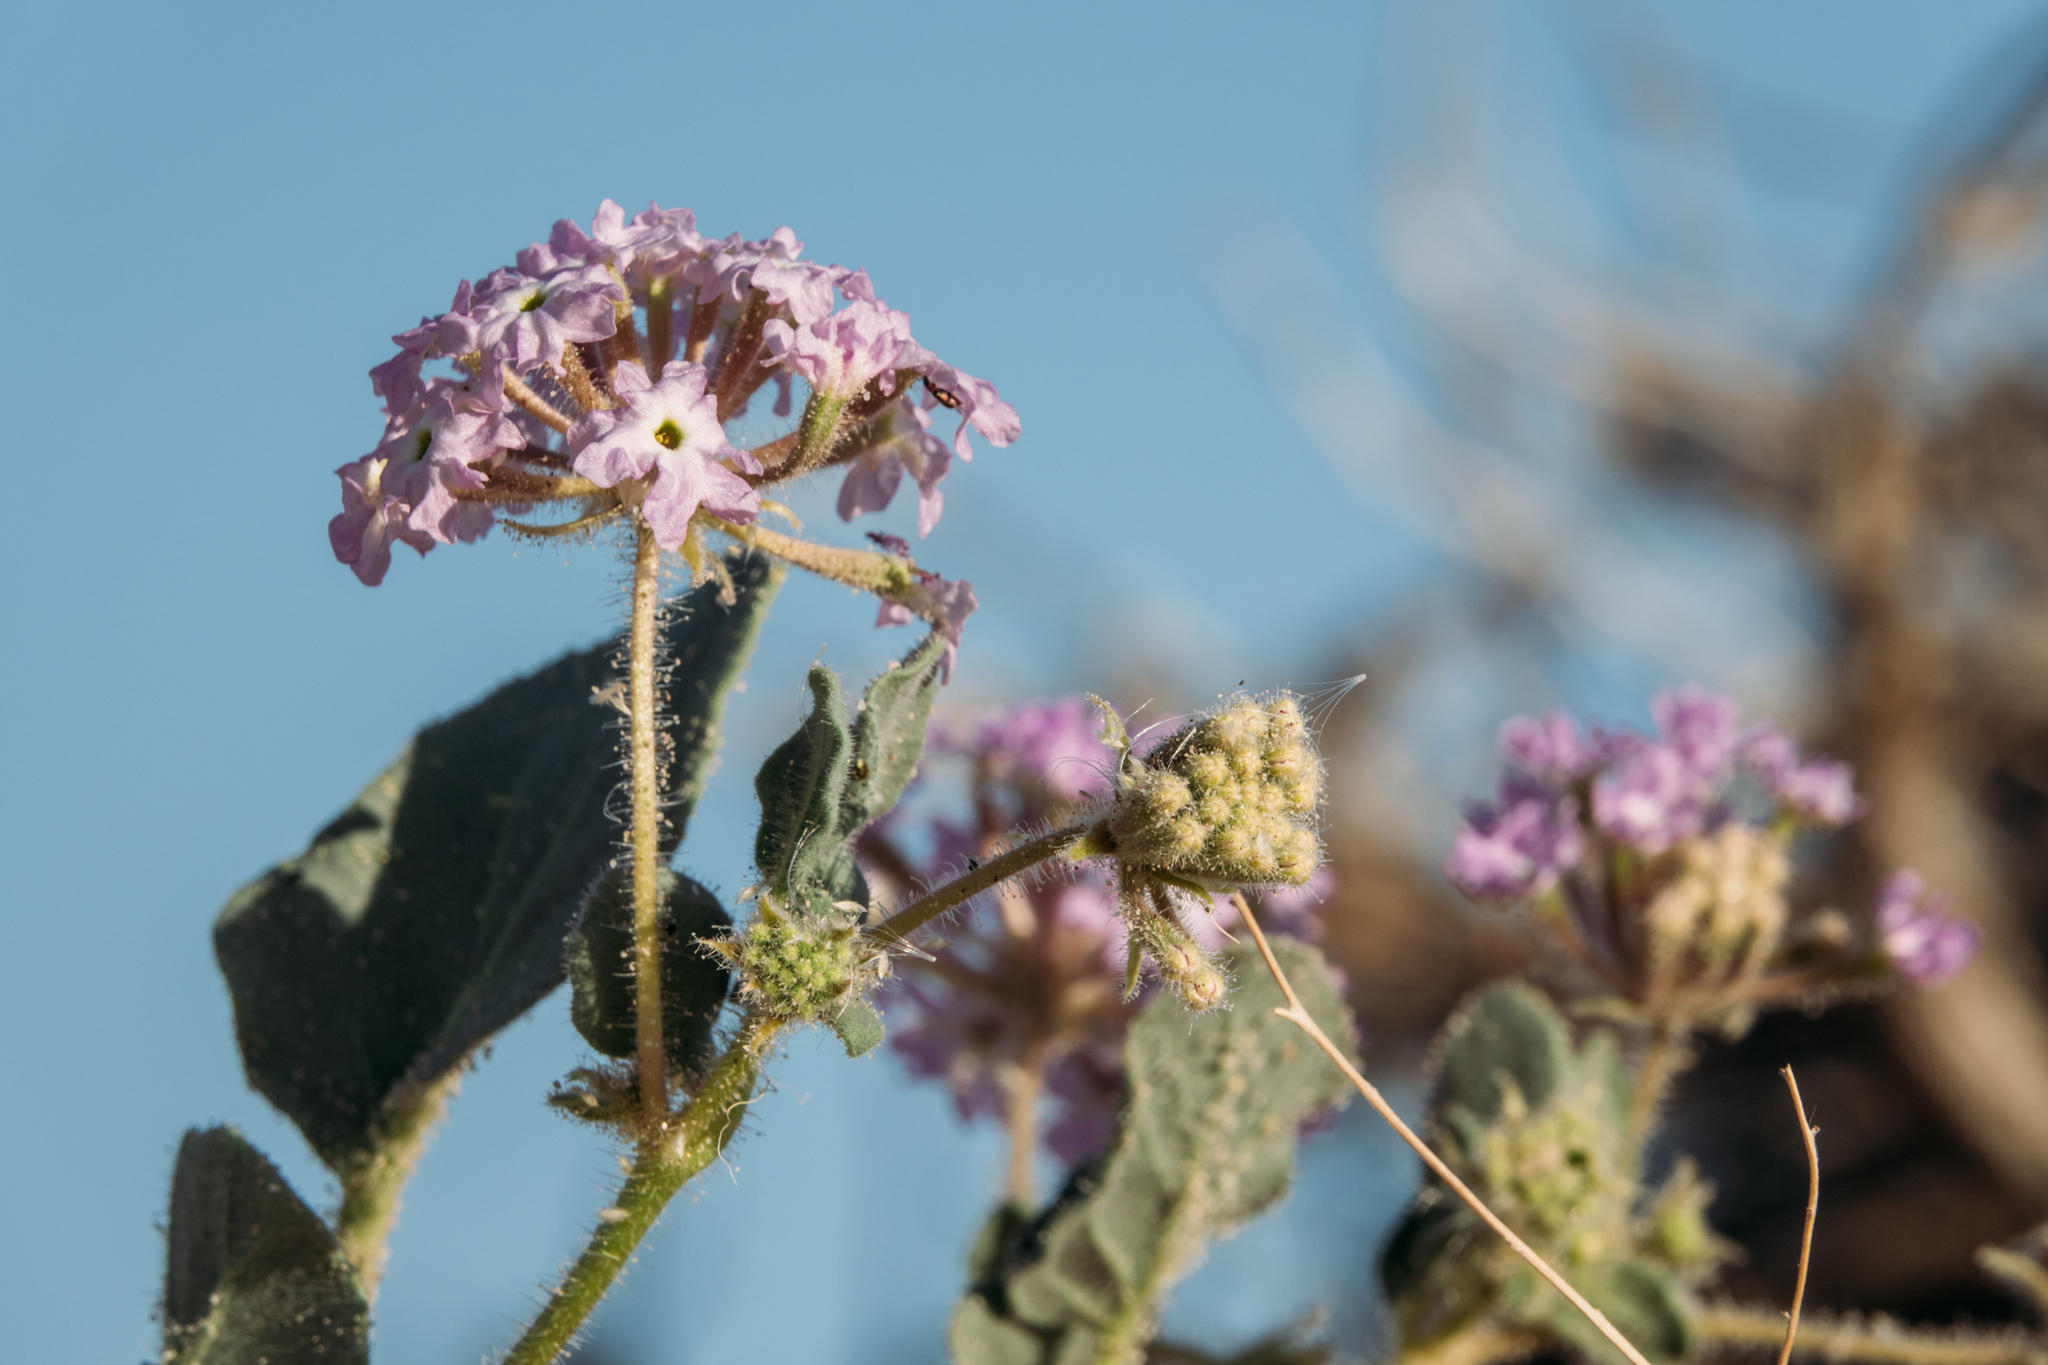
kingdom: Plantae
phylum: Tracheophyta
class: Magnoliopsida
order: Caryophyllales
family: Nyctaginaceae
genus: Abronia
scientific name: Abronia villosa
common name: Desert sand-verbena
